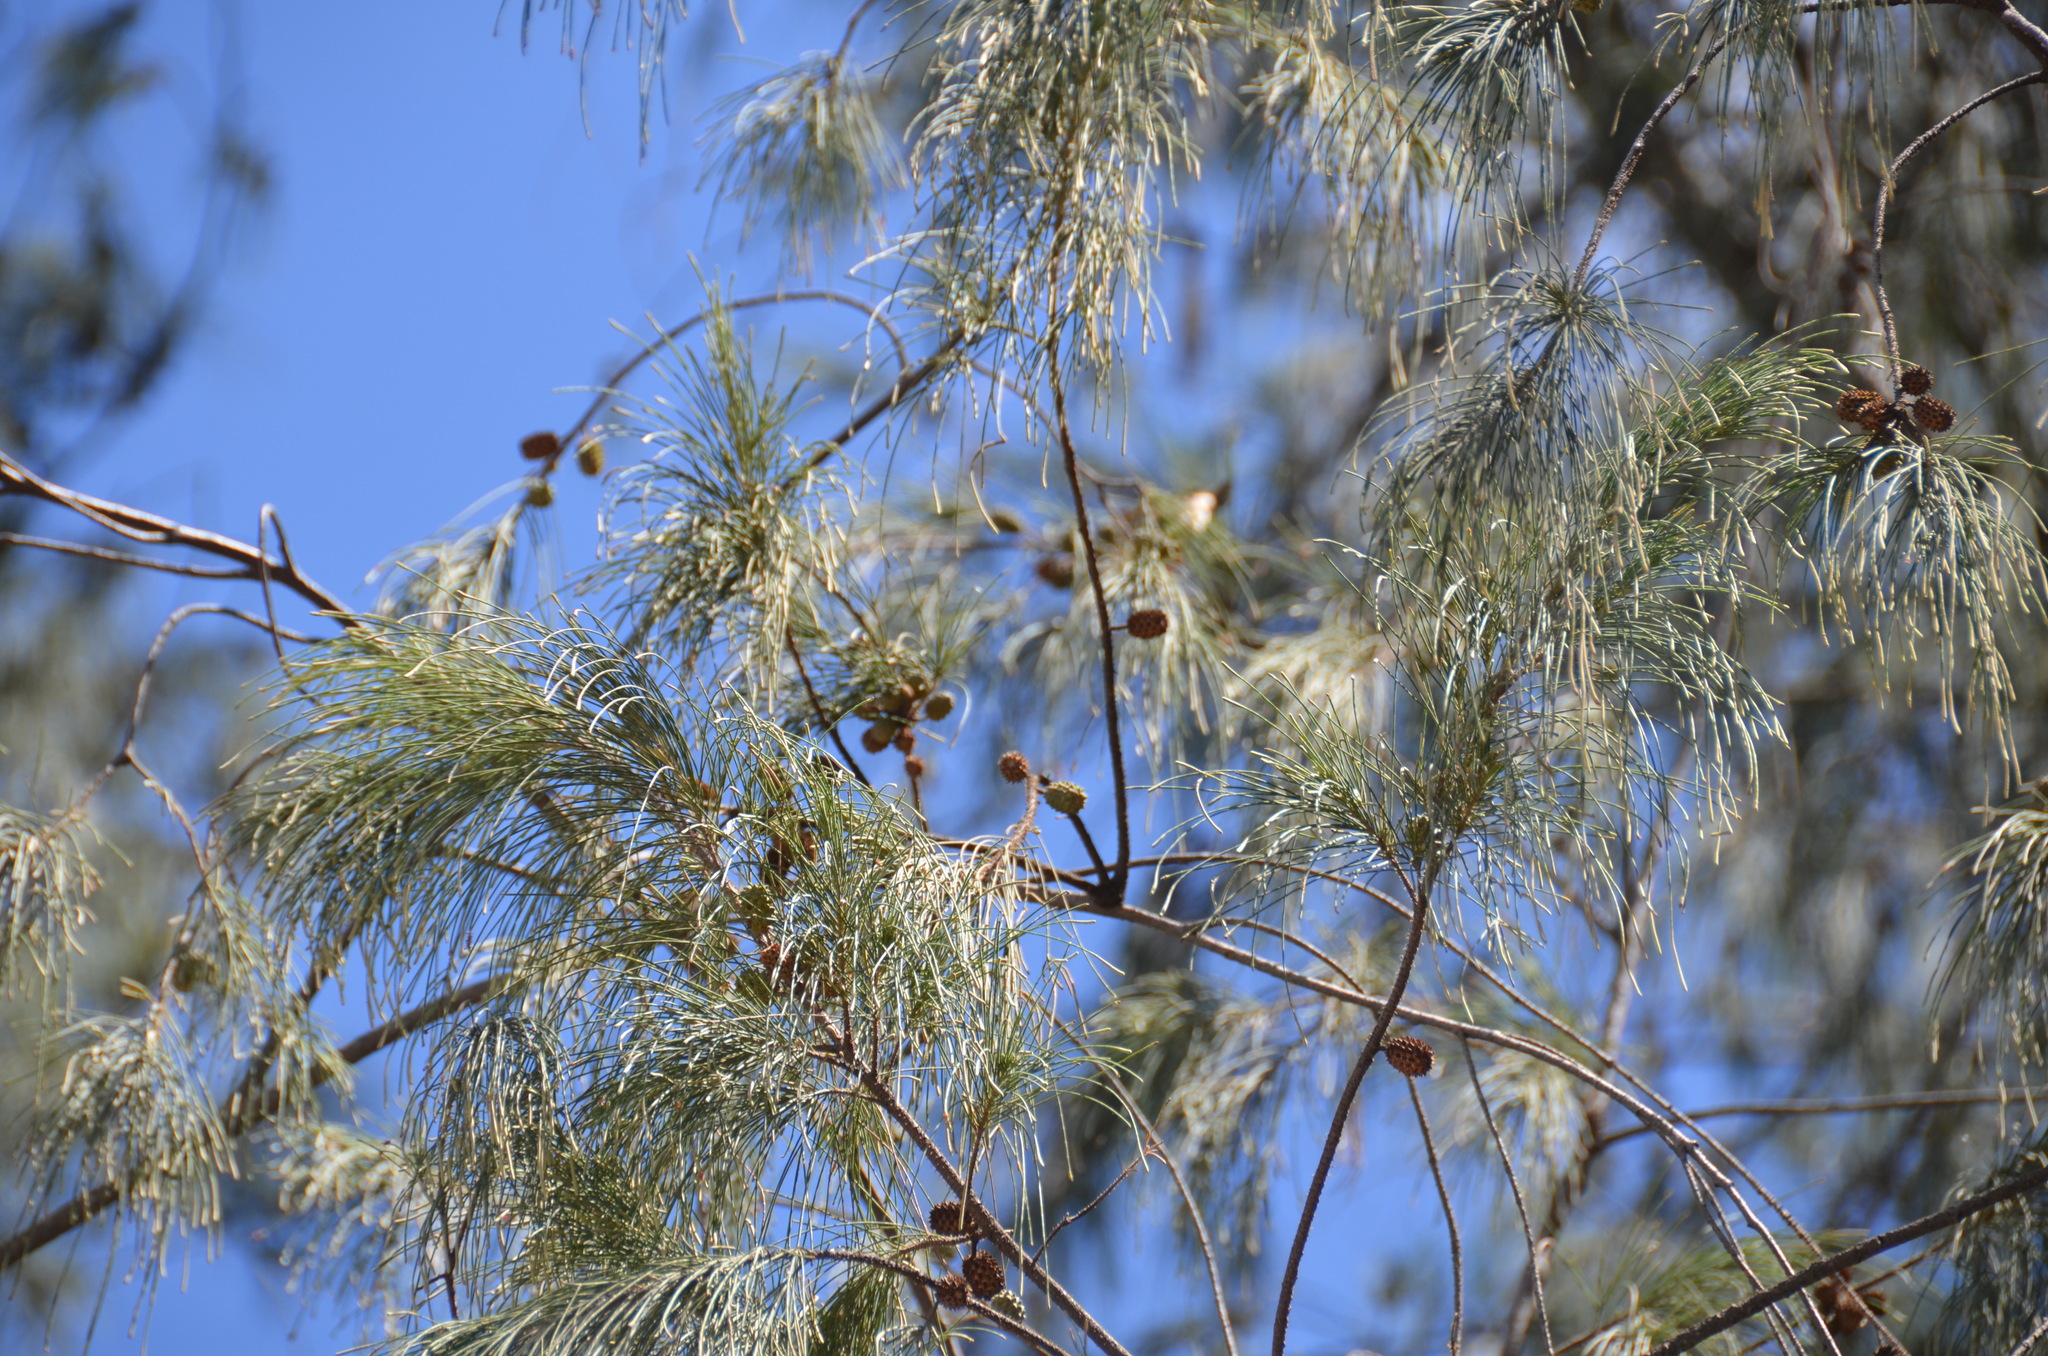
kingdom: Animalia
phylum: Chordata
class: Aves
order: Passeriformes
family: Fringillidae
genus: Haemorhous
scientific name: Haemorhous mexicanus
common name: House finch
